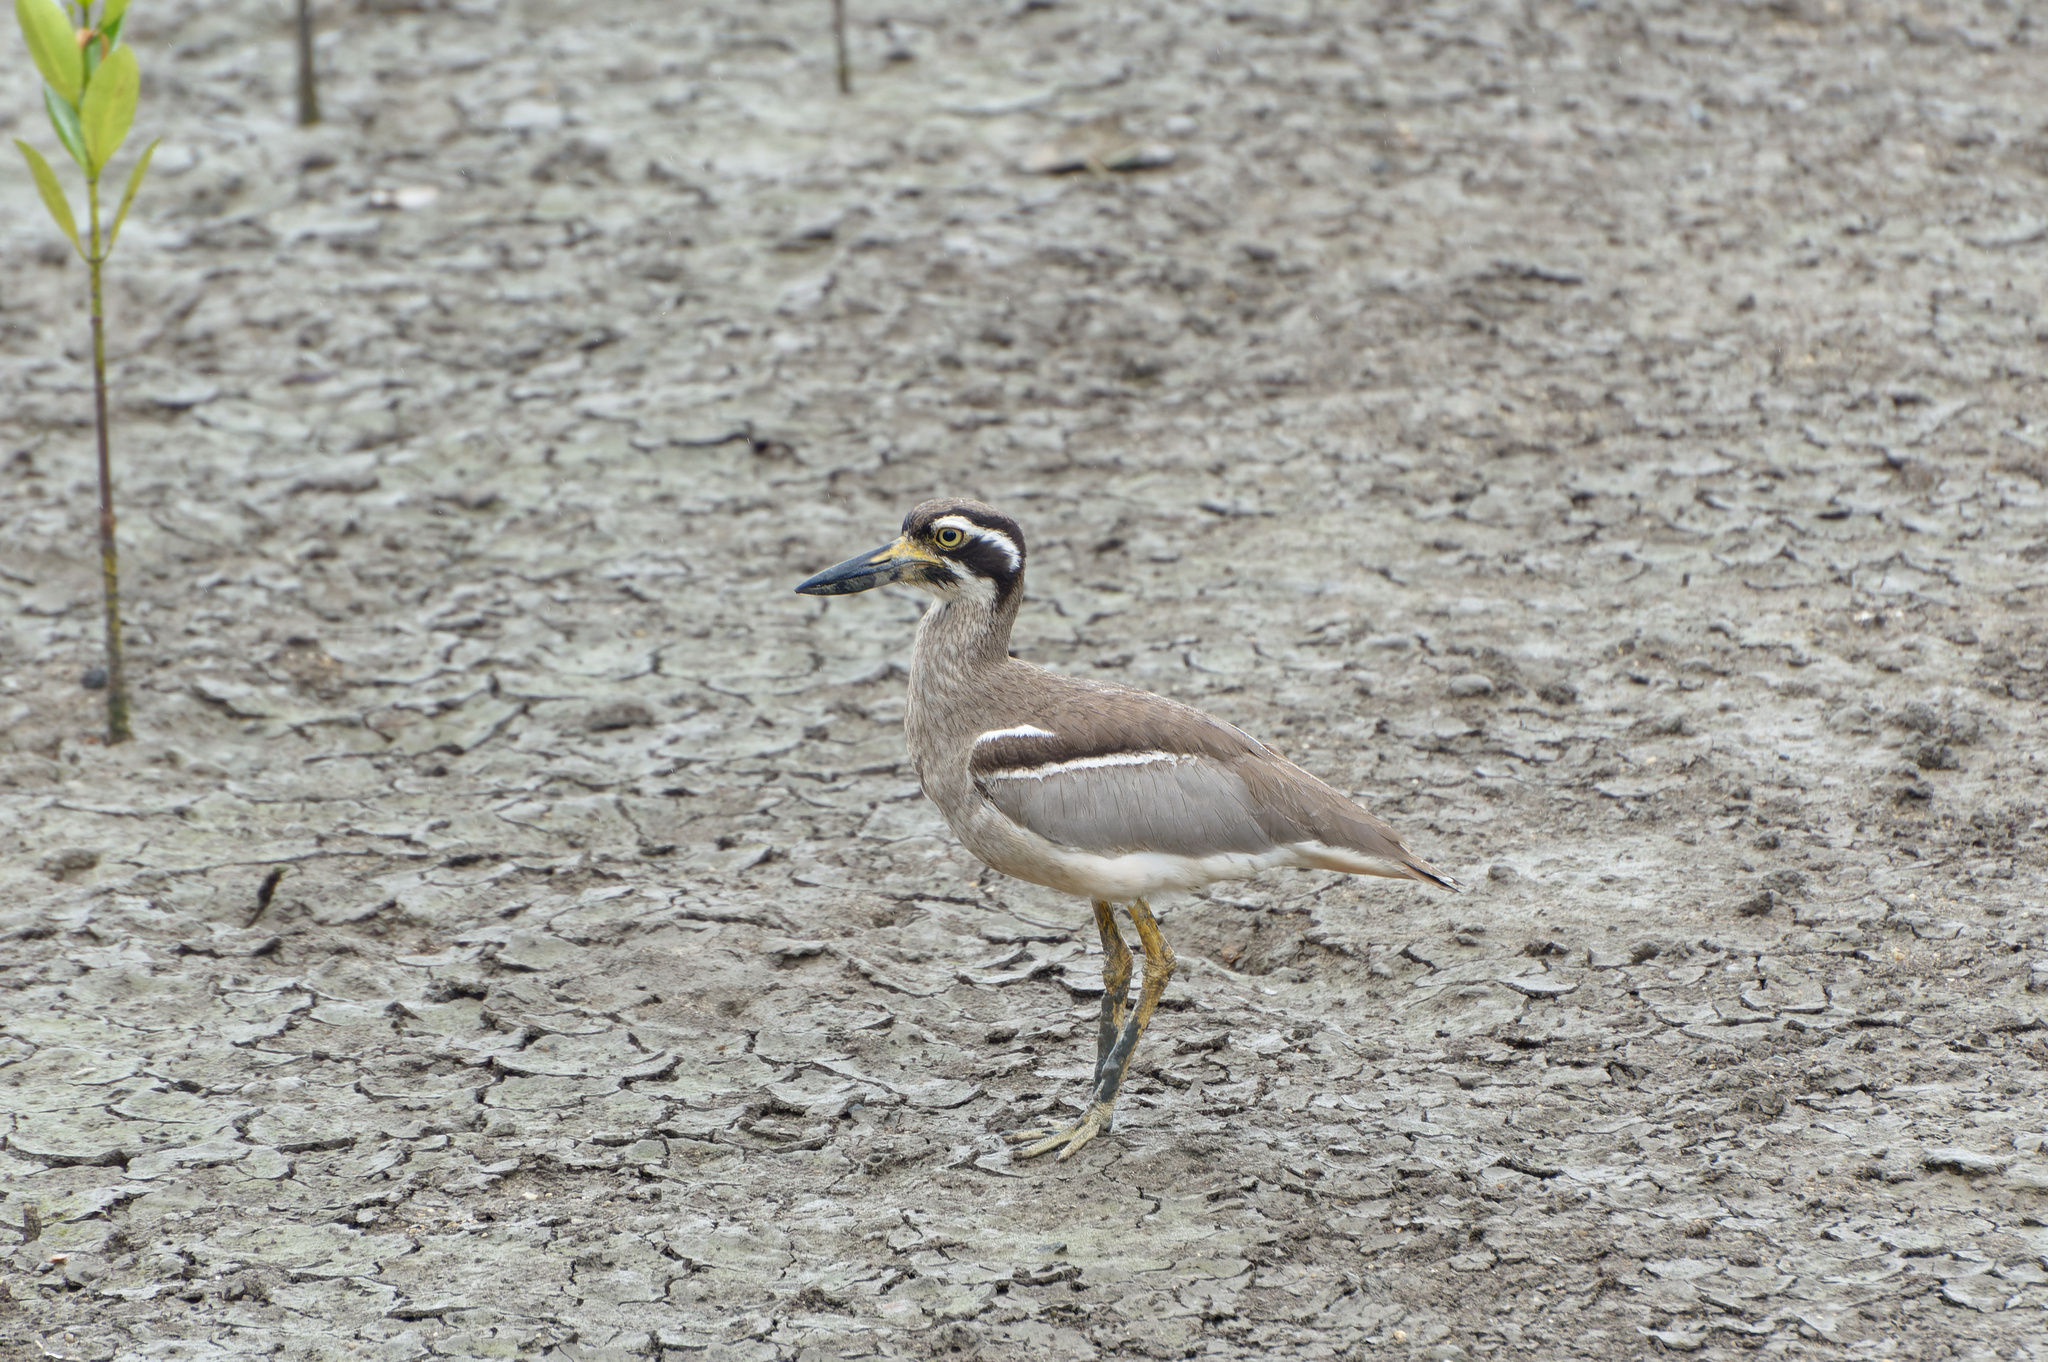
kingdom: Animalia
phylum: Chordata
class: Aves
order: Charadriiformes
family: Burhinidae
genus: Esacus
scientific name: Esacus magnirostris
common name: Beach stone-curlew
